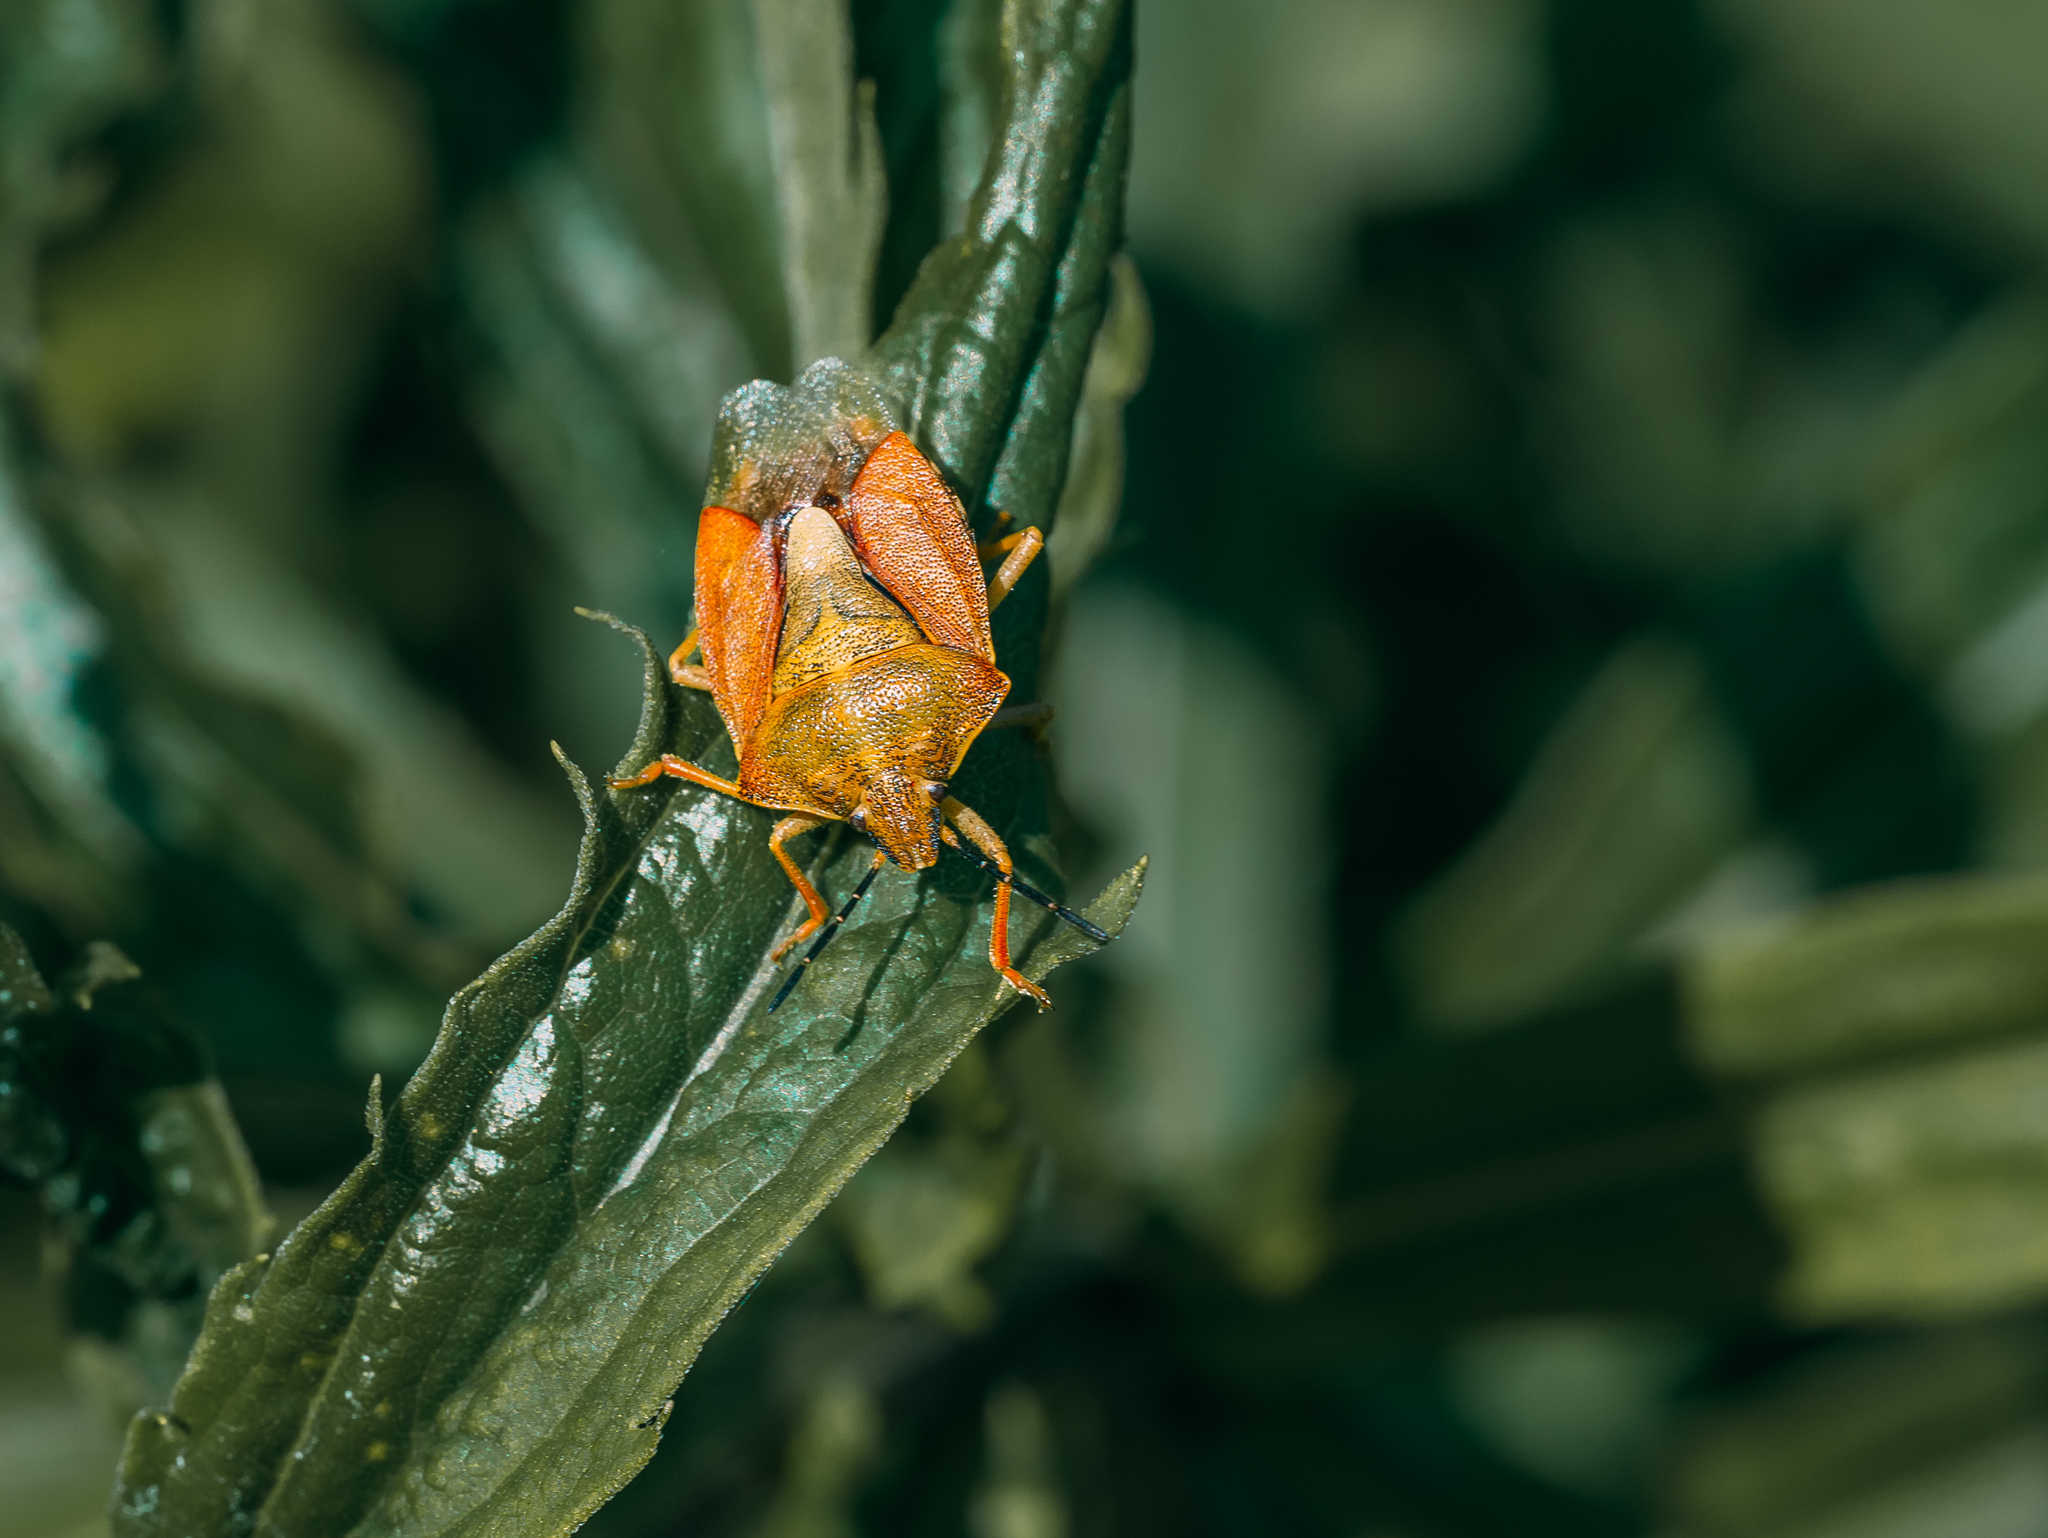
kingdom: Animalia
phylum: Arthropoda
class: Insecta
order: Hemiptera
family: Pentatomidae
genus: Carpocoris
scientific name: Carpocoris purpureipennis
